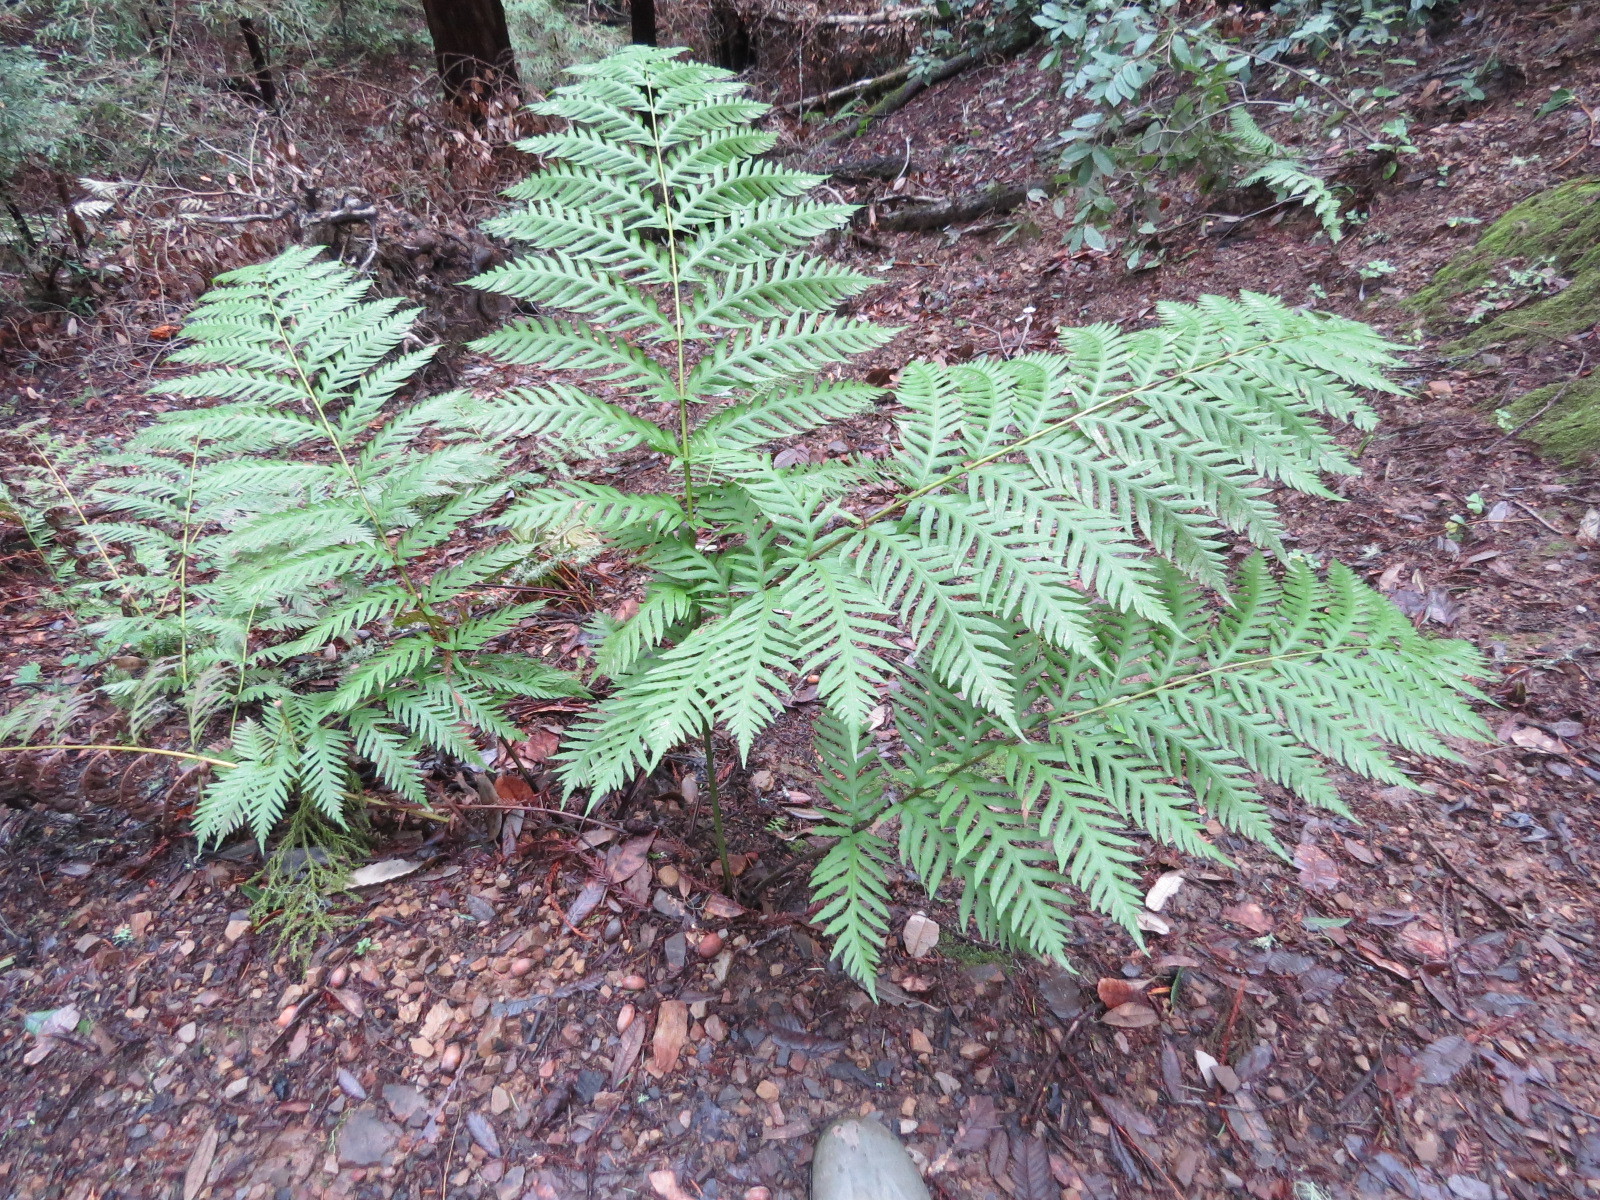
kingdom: Plantae
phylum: Tracheophyta
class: Polypodiopsida
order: Polypodiales
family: Blechnaceae
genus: Woodwardia
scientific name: Woodwardia fimbriata
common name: Giant chain fern
